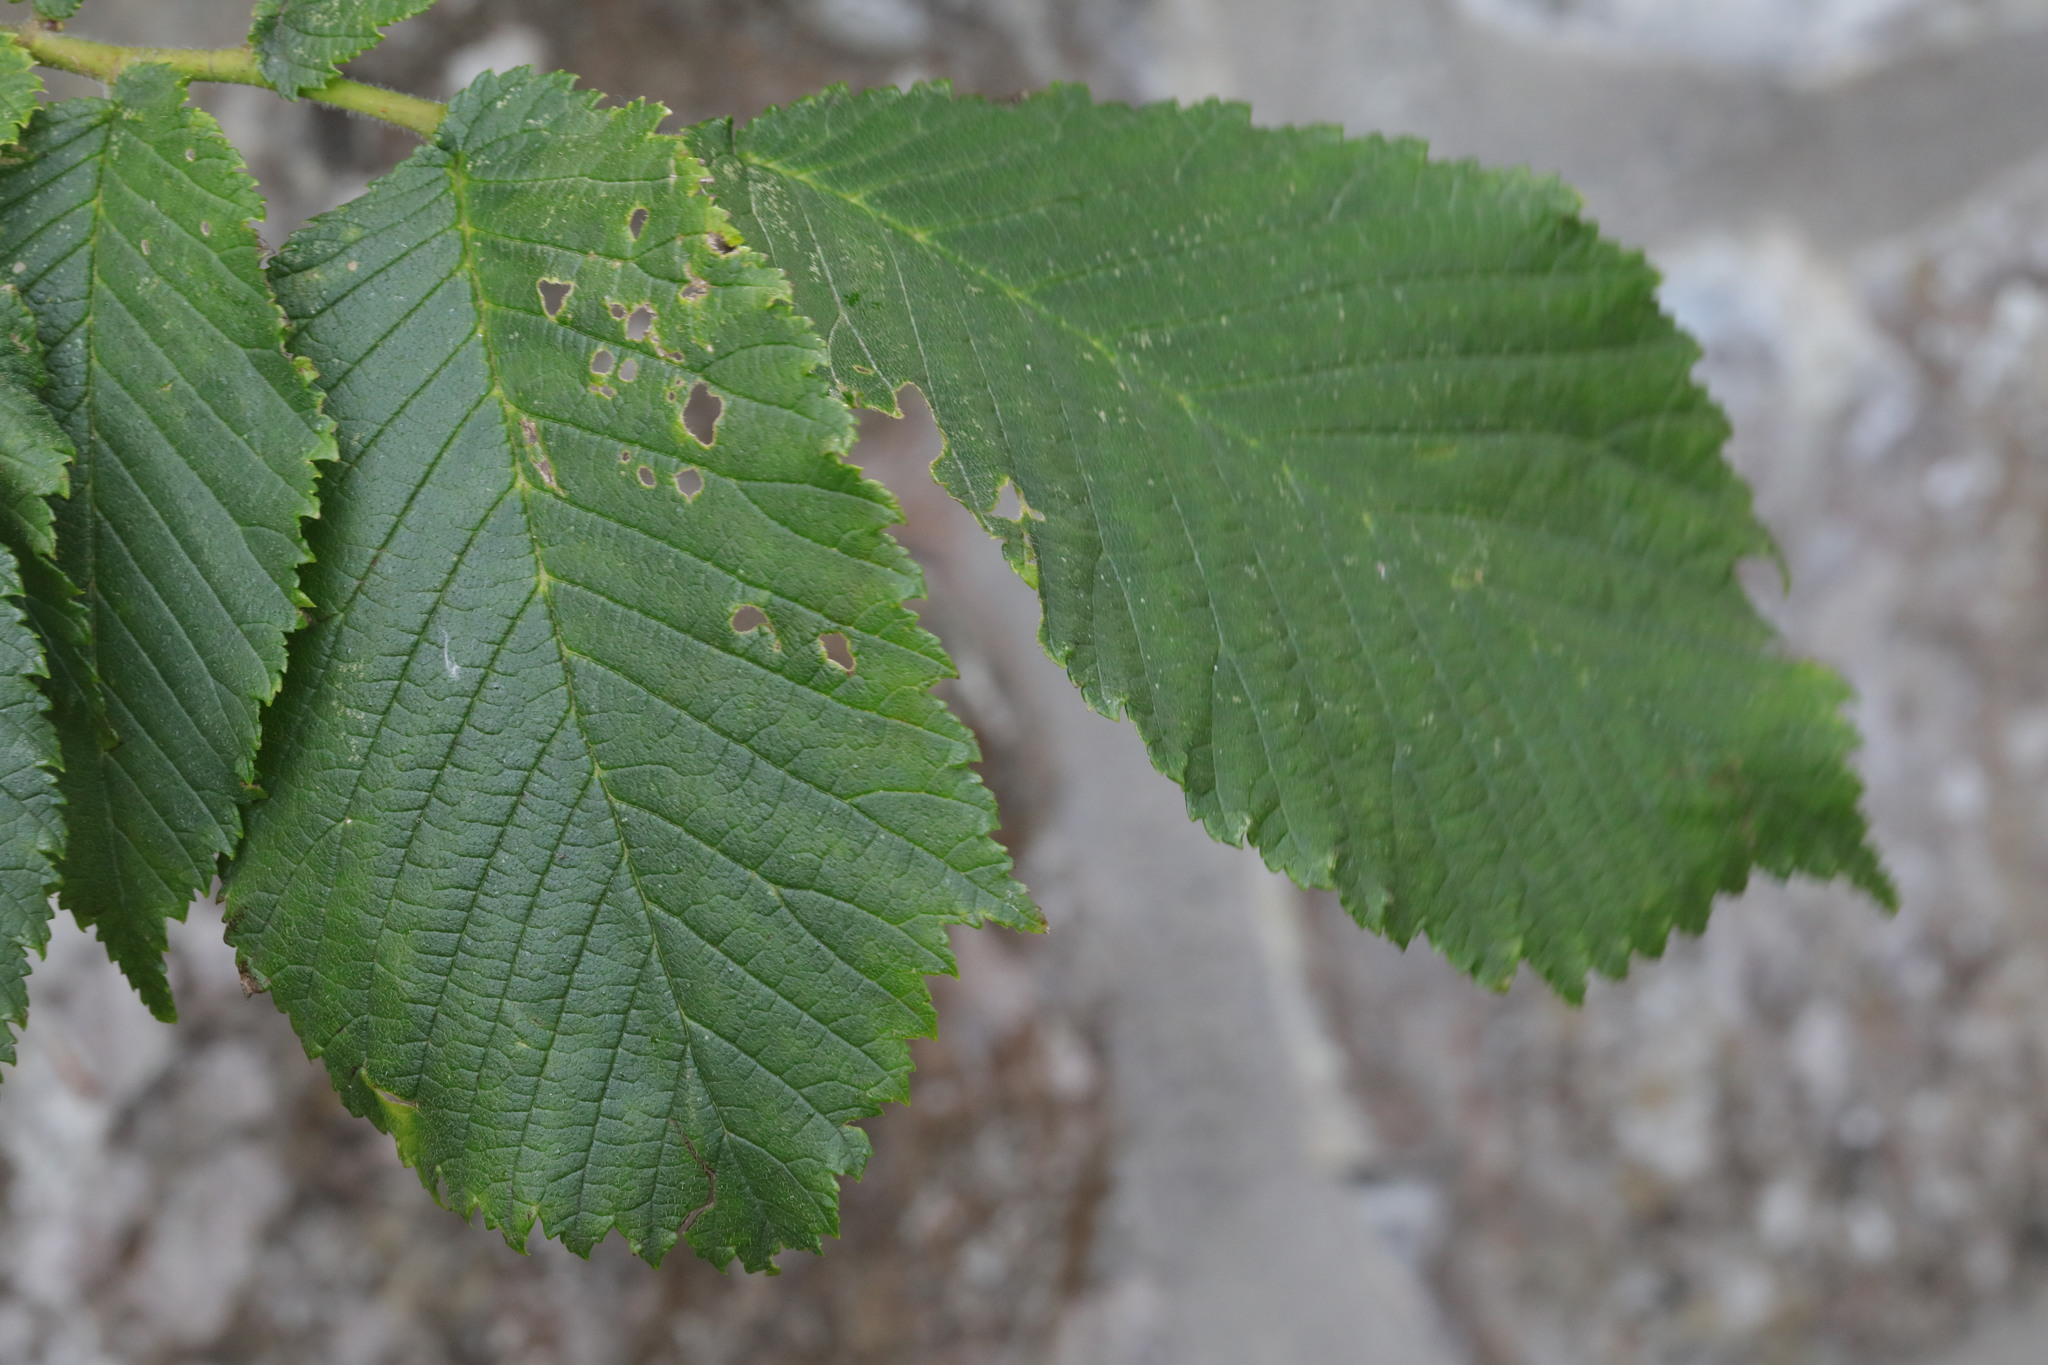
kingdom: Plantae
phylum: Tracheophyta
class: Magnoliopsida
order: Rosales
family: Ulmaceae
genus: Ulmus
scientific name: Ulmus glabra
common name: Wych elm
